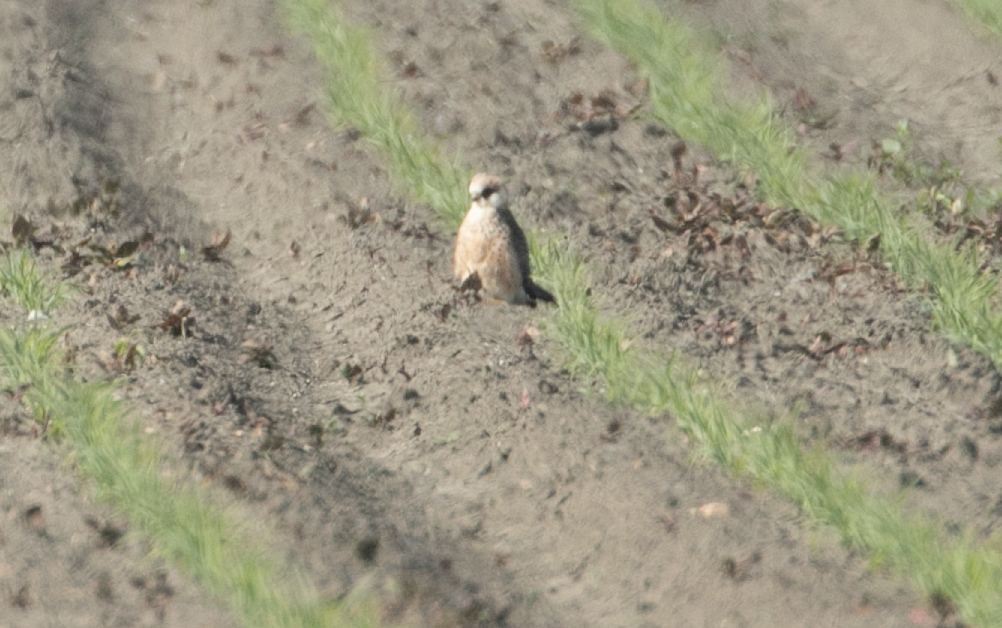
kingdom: Animalia
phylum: Chordata
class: Aves
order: Falconiformes
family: Falconidae
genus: Falco
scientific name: Falco vespertinus
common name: Red-footed falcon
